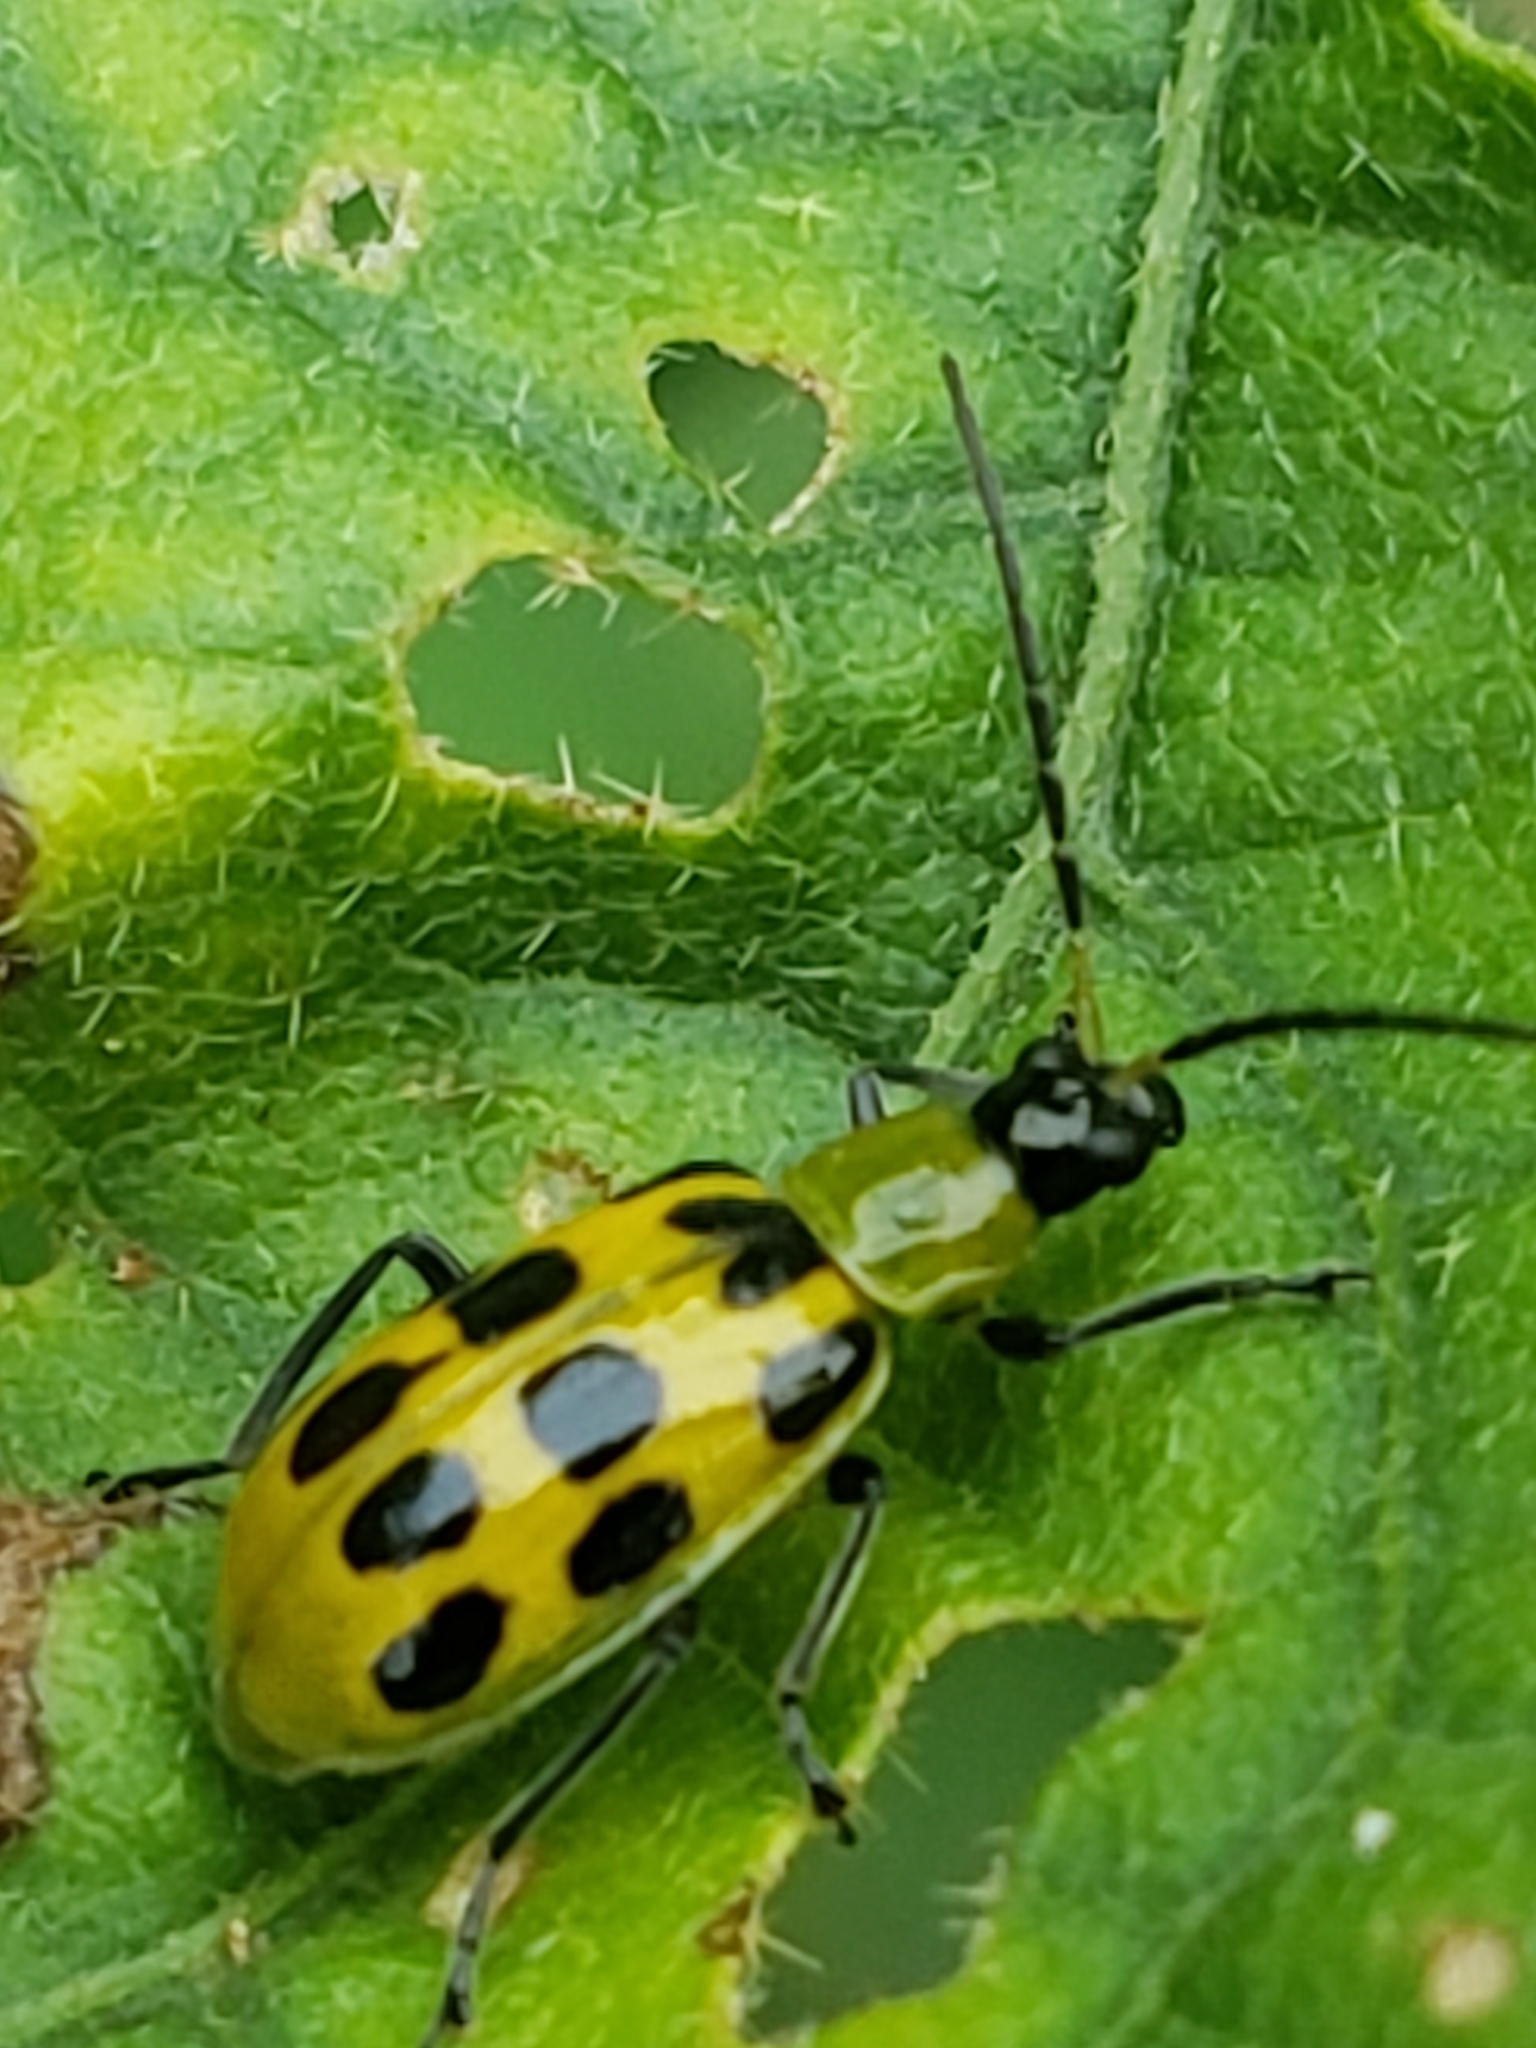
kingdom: Animalia
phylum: Arthropoda
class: Insecta
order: Coleoptera
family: Chrysomelidae
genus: Diabrotica
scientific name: Diabrotica undecimpunctata
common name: Spotted cucumber beetle
